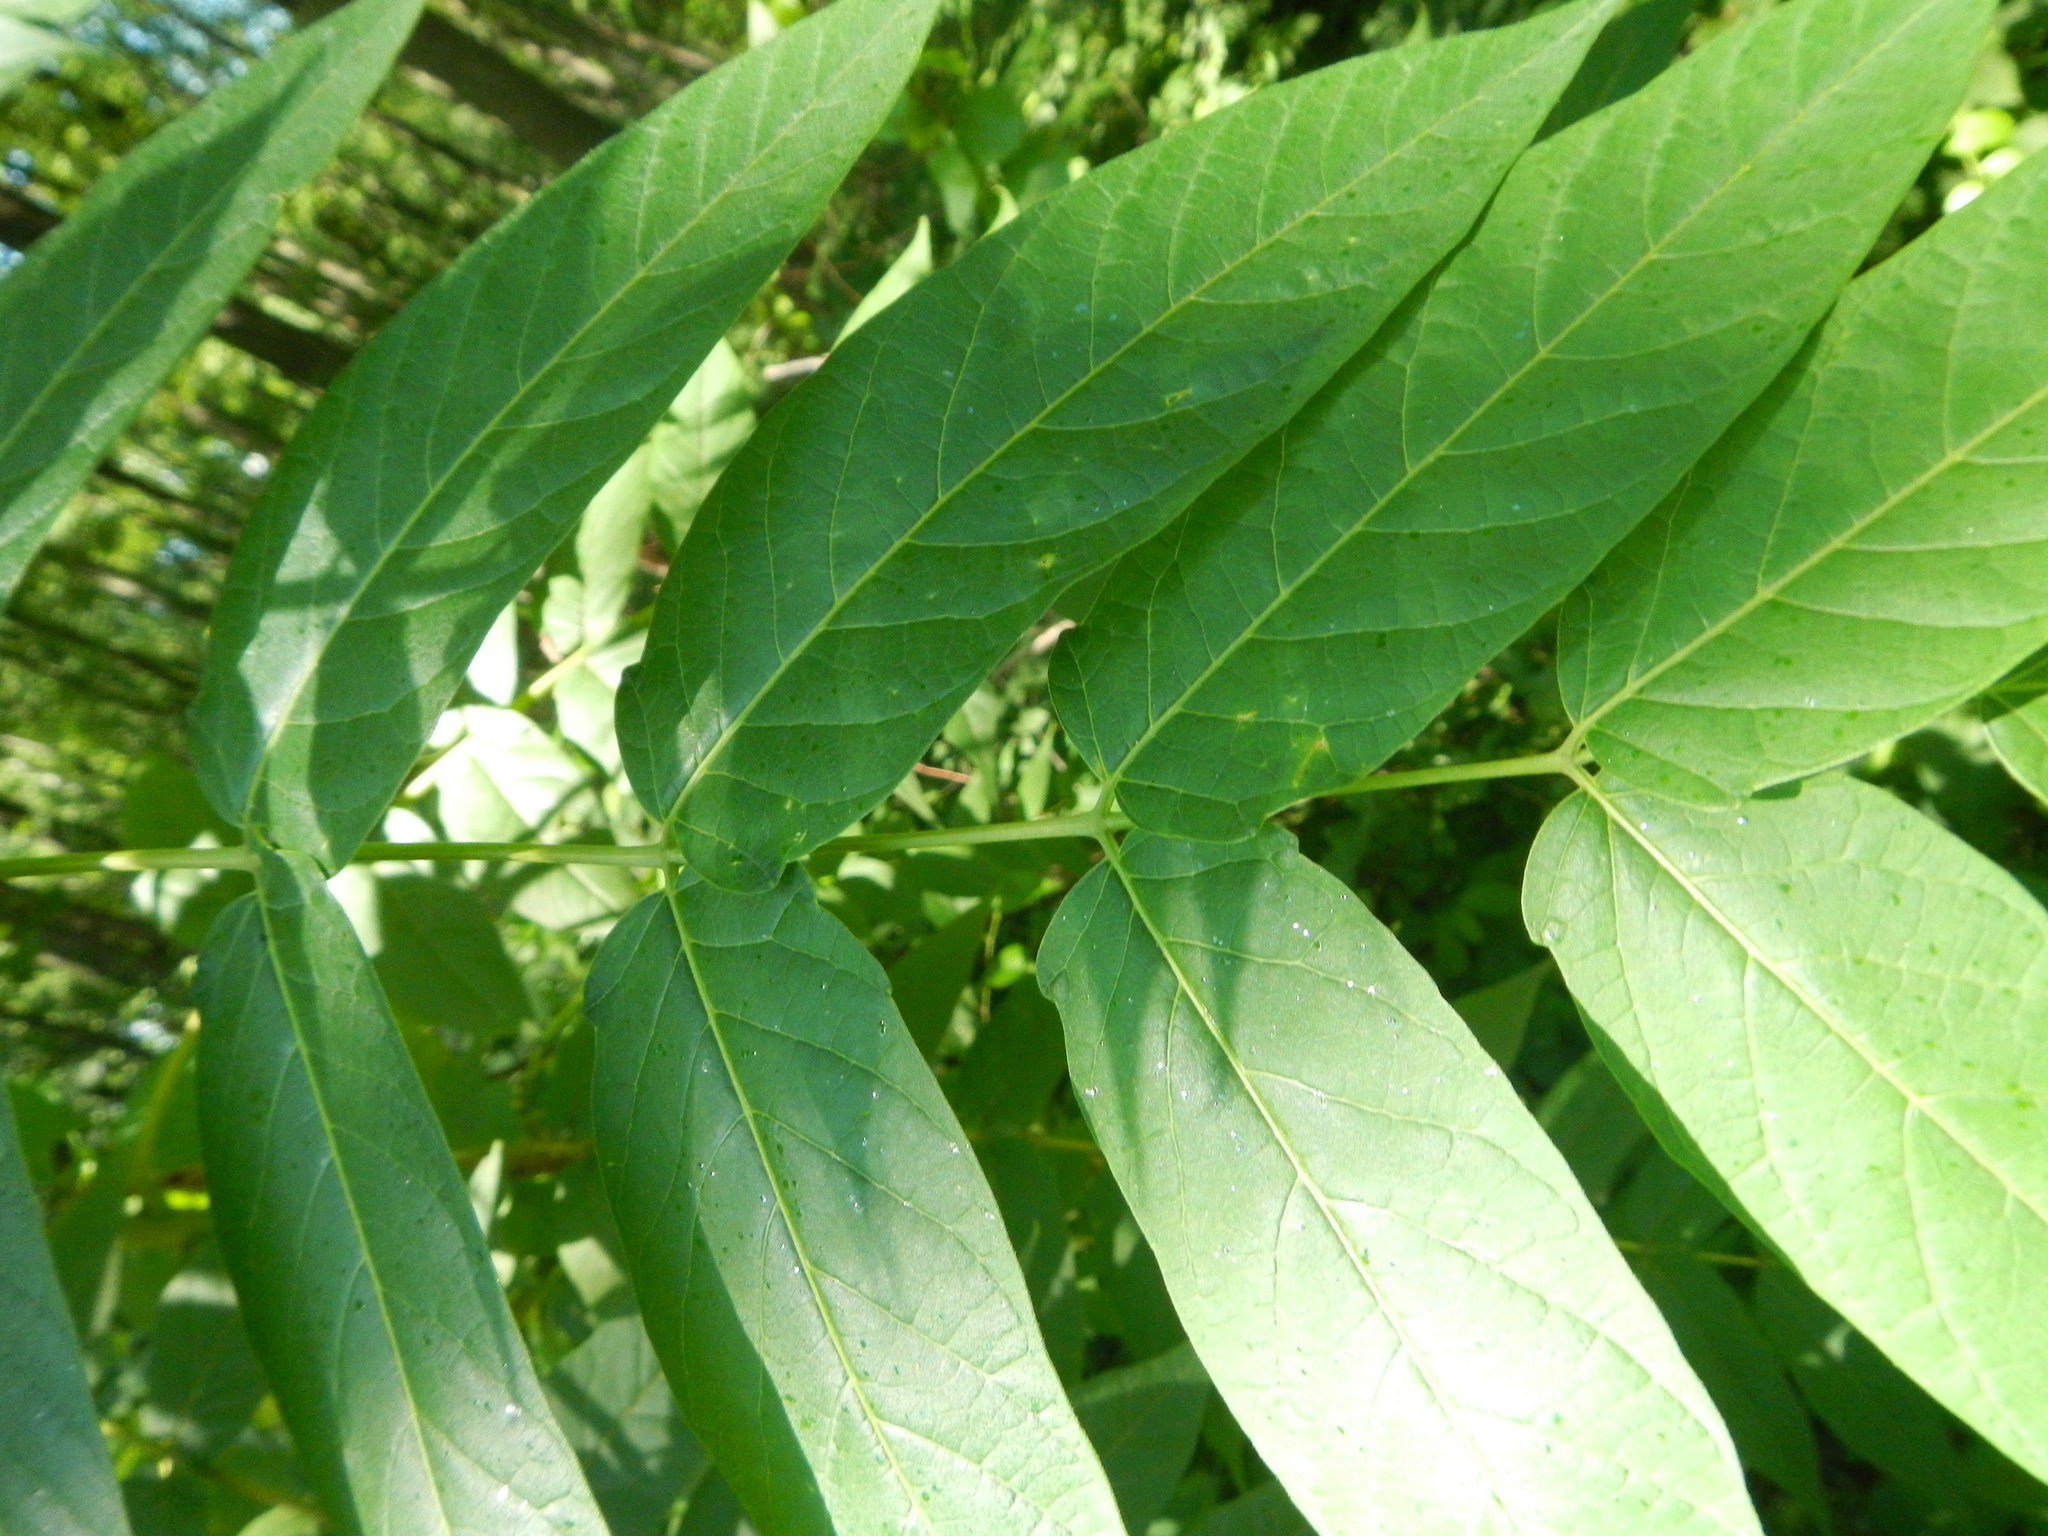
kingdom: Plantae
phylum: Tracheophyta
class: Magnoliopsida
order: Sapindales
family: Simaroubaceae
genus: Ailanthus
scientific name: Ailanthus altissima
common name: Tree-of-heaven
